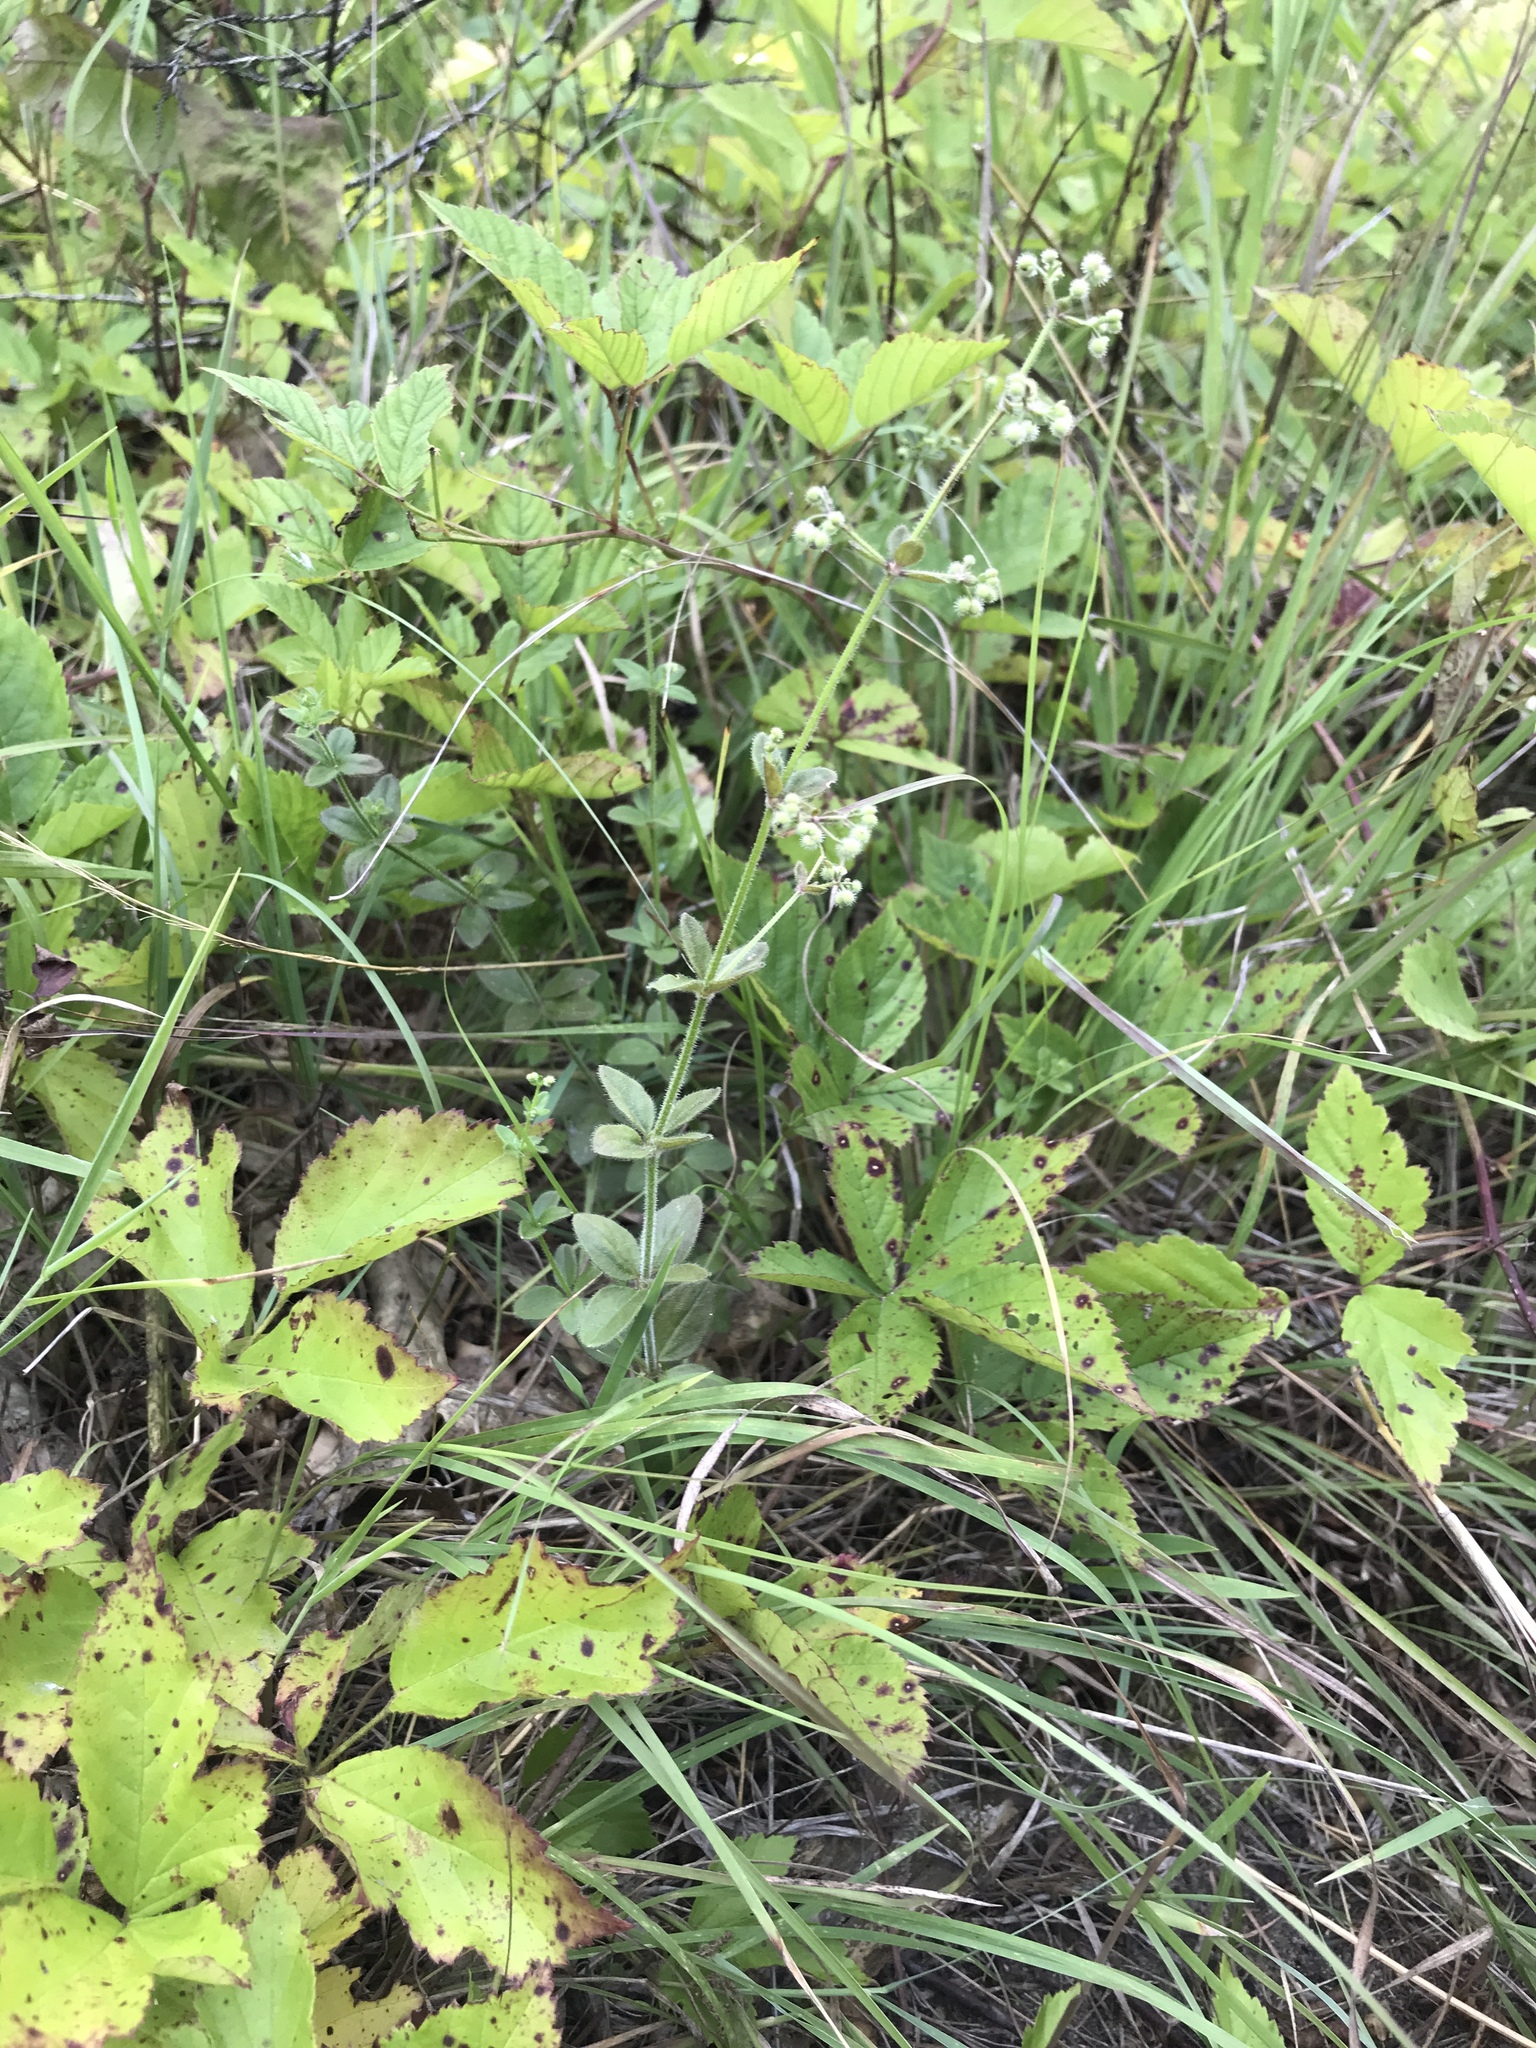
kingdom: Plantae
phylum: Tracheophyta
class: Magnoliopsida
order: Gentianales
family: Rubiaceae
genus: Galium
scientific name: Galium pilosum
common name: Hairy bedstraw
